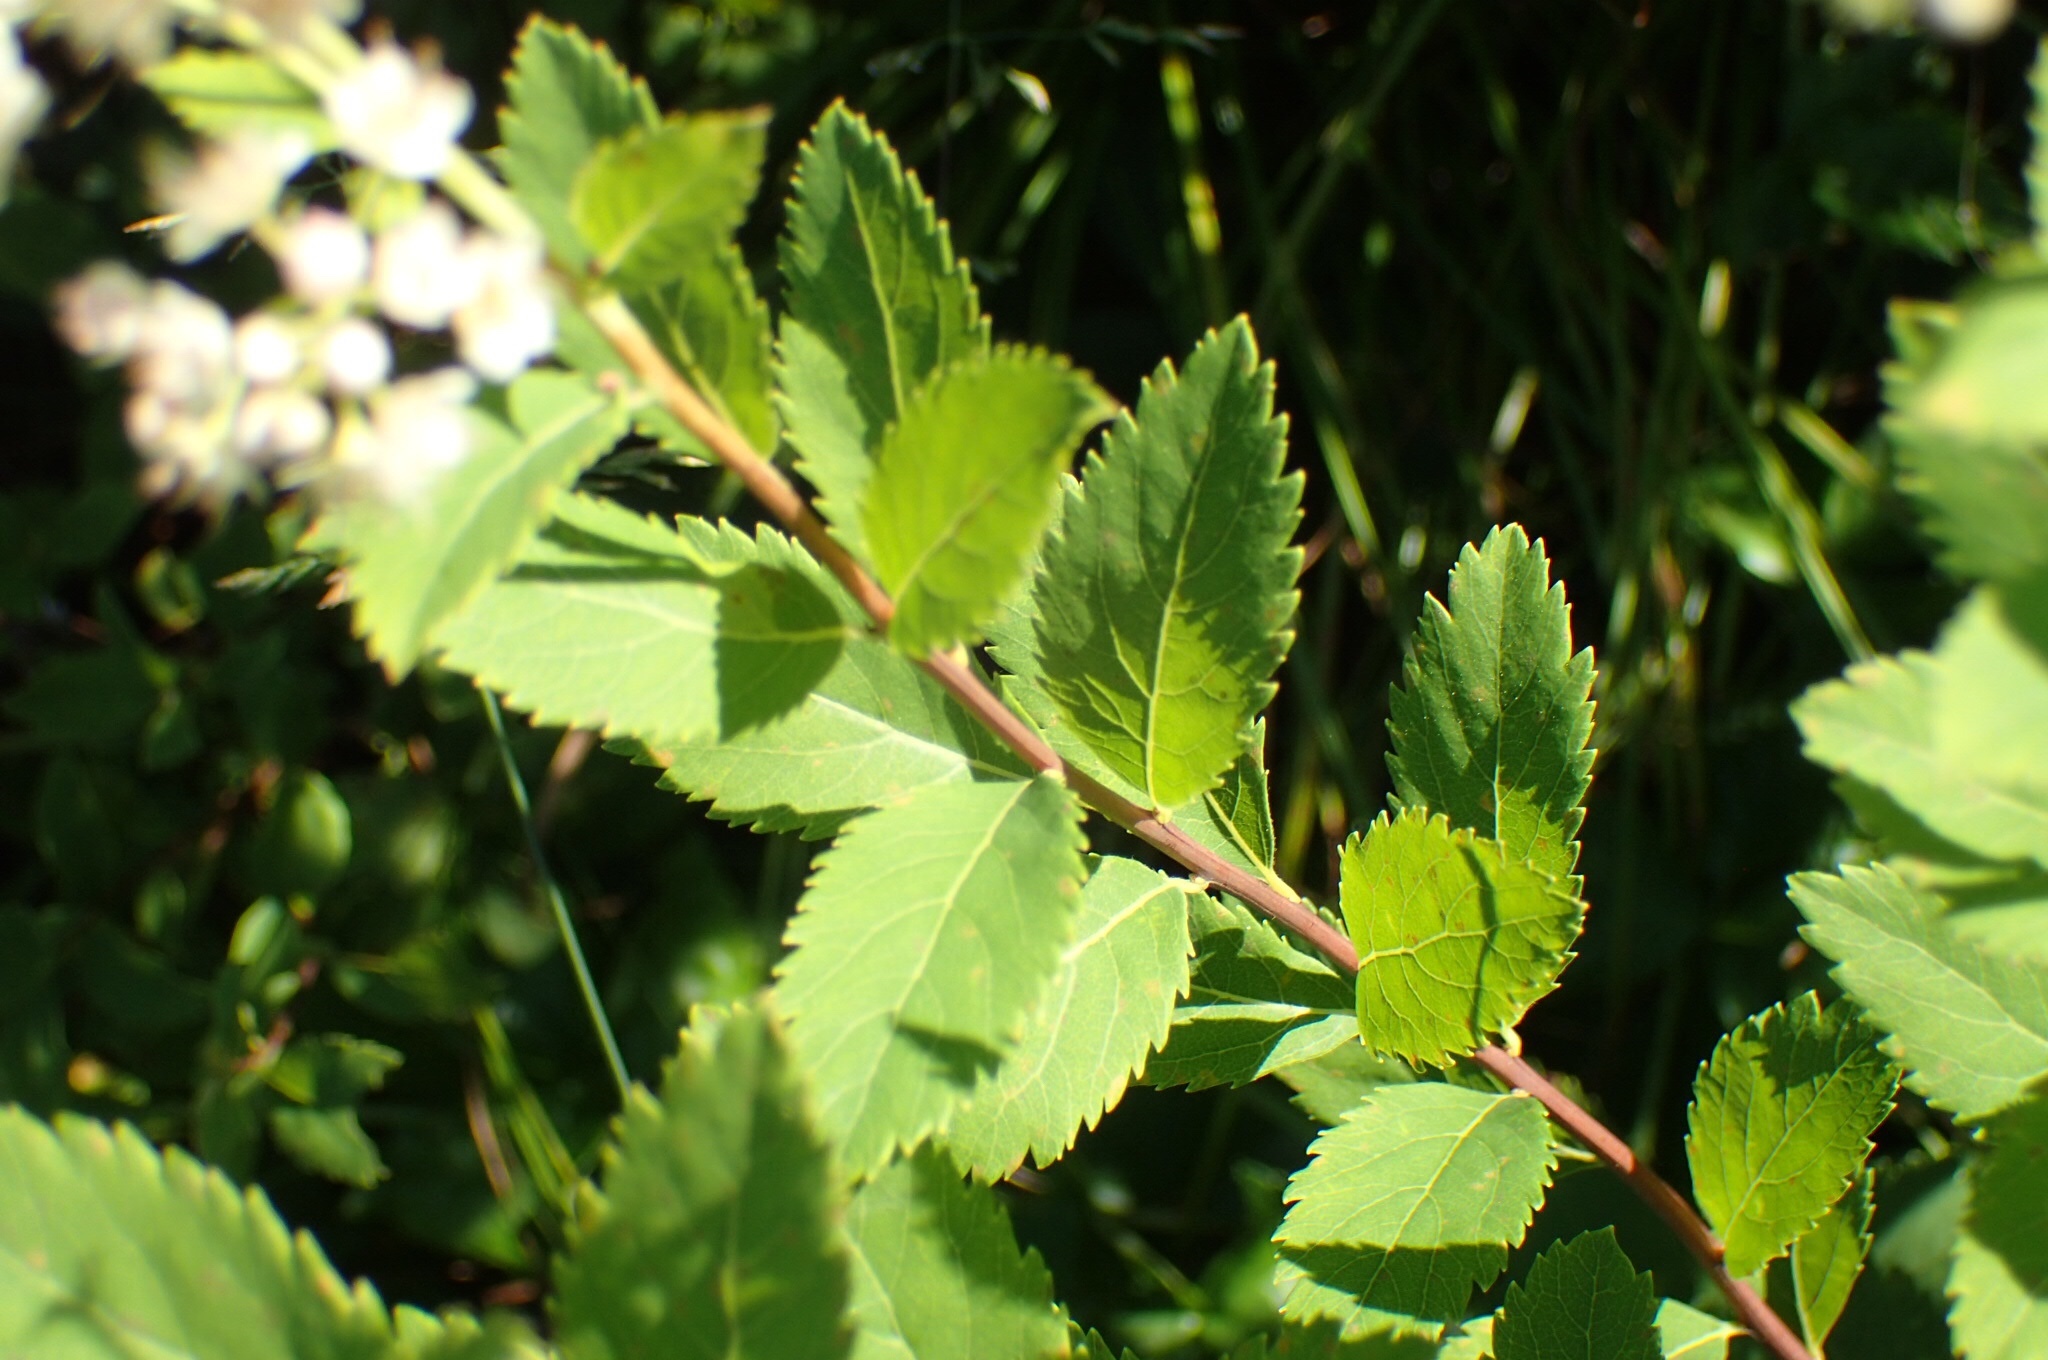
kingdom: Plantae
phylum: Tracheophyta
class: Magnoliopsida
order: Rosales
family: Rosaceae
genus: Spiraea
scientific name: Spiraea alba
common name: Pale bridewort
